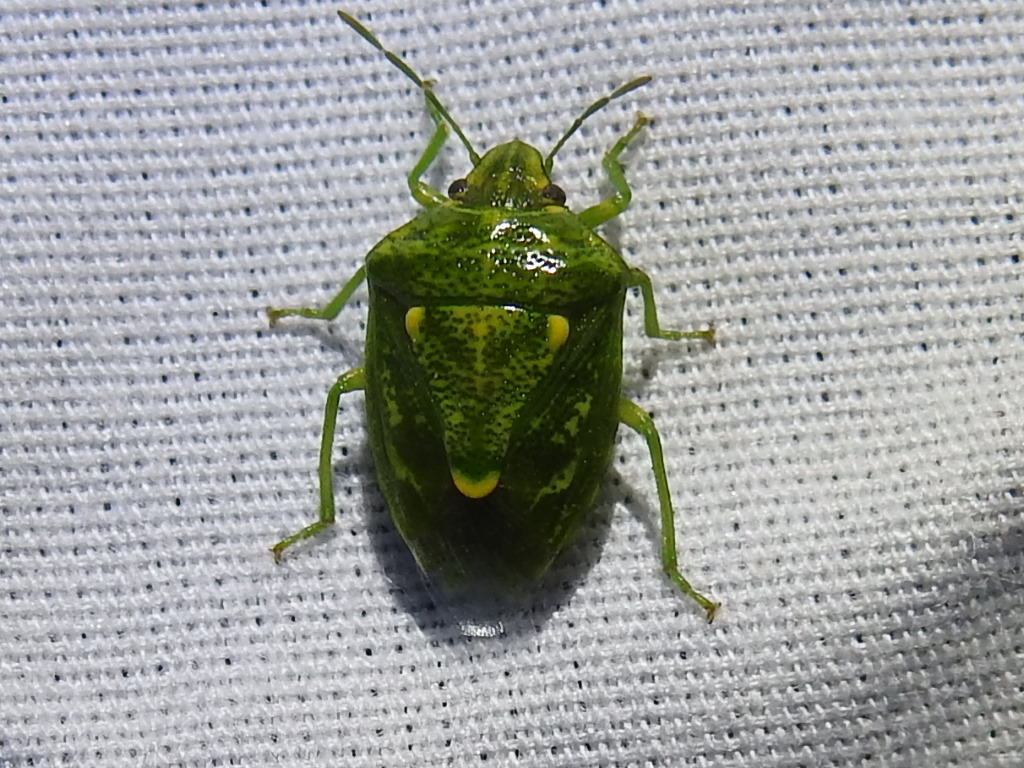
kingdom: Animalia
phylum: Arthropoda
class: Insecta
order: Hemiptera
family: Pentatomidae
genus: Banasa
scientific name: Banasa euchlora
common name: Cedar berry bug
